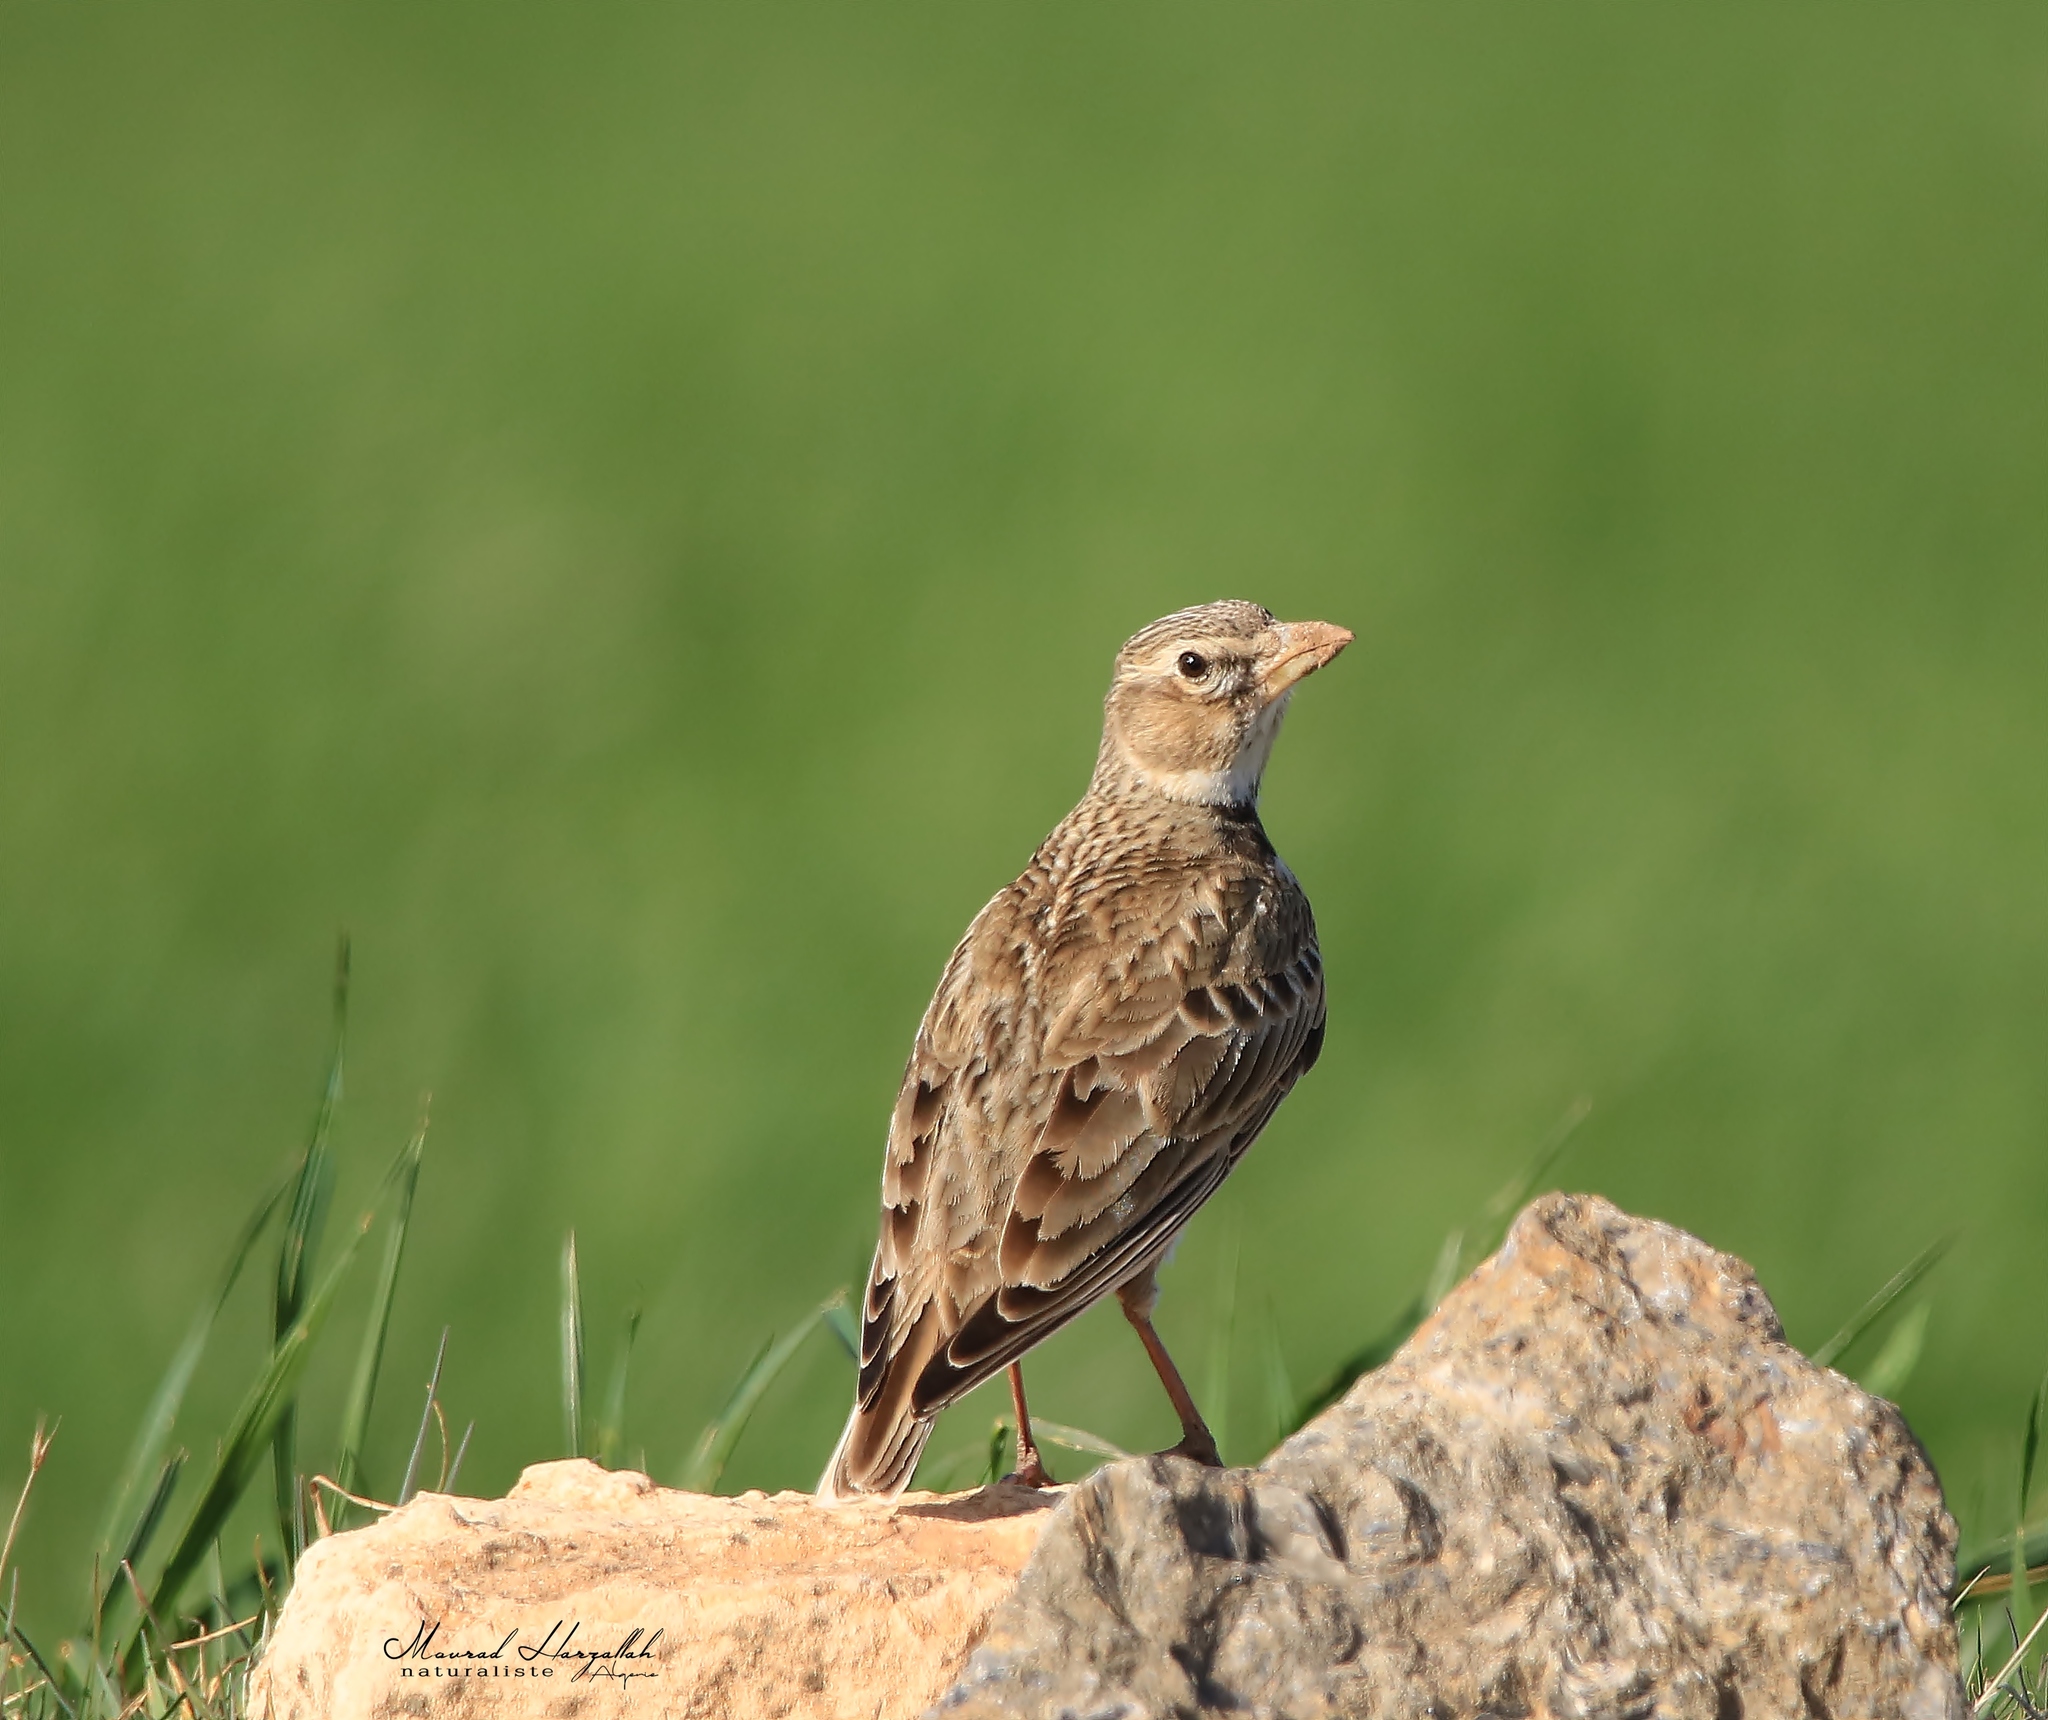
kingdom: Animalia
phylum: Chordata
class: Aves
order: Passeriformes
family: Alaudidae
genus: Melanocorypha
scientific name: Melanocorypha calandra
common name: Calandra lark
